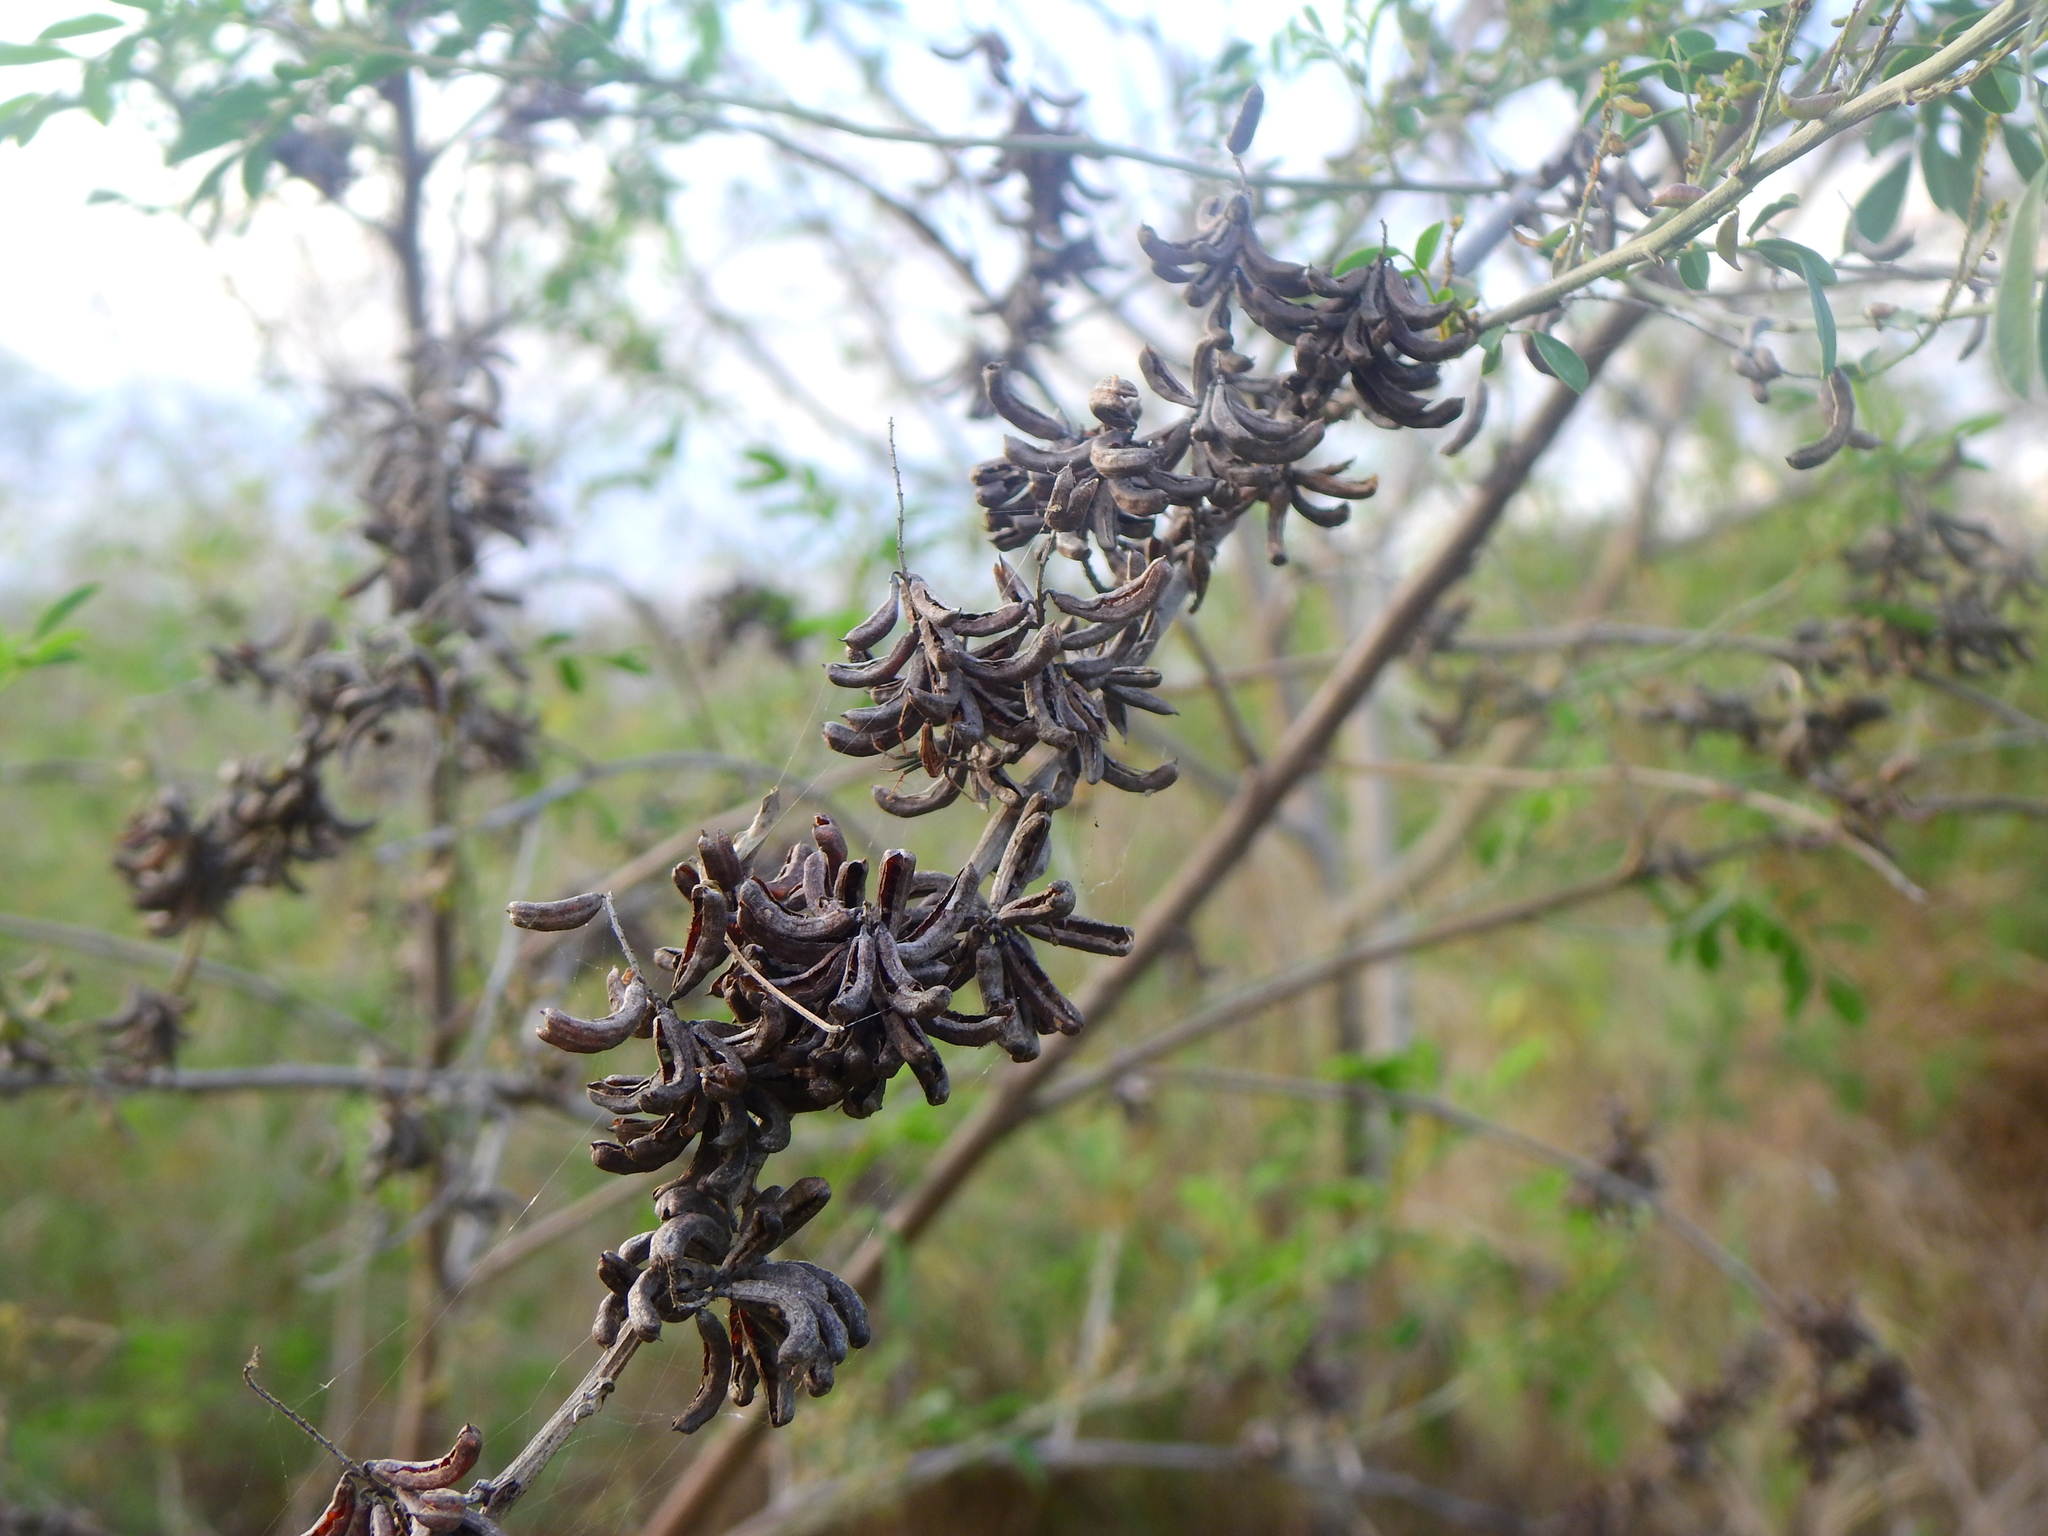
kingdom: Plantae
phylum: Tracheophyta
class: Magnoliopsida
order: Fabales
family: Fabaceae
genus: Indigofera
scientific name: Indigofera suffruticosa
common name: Anil de pasto
